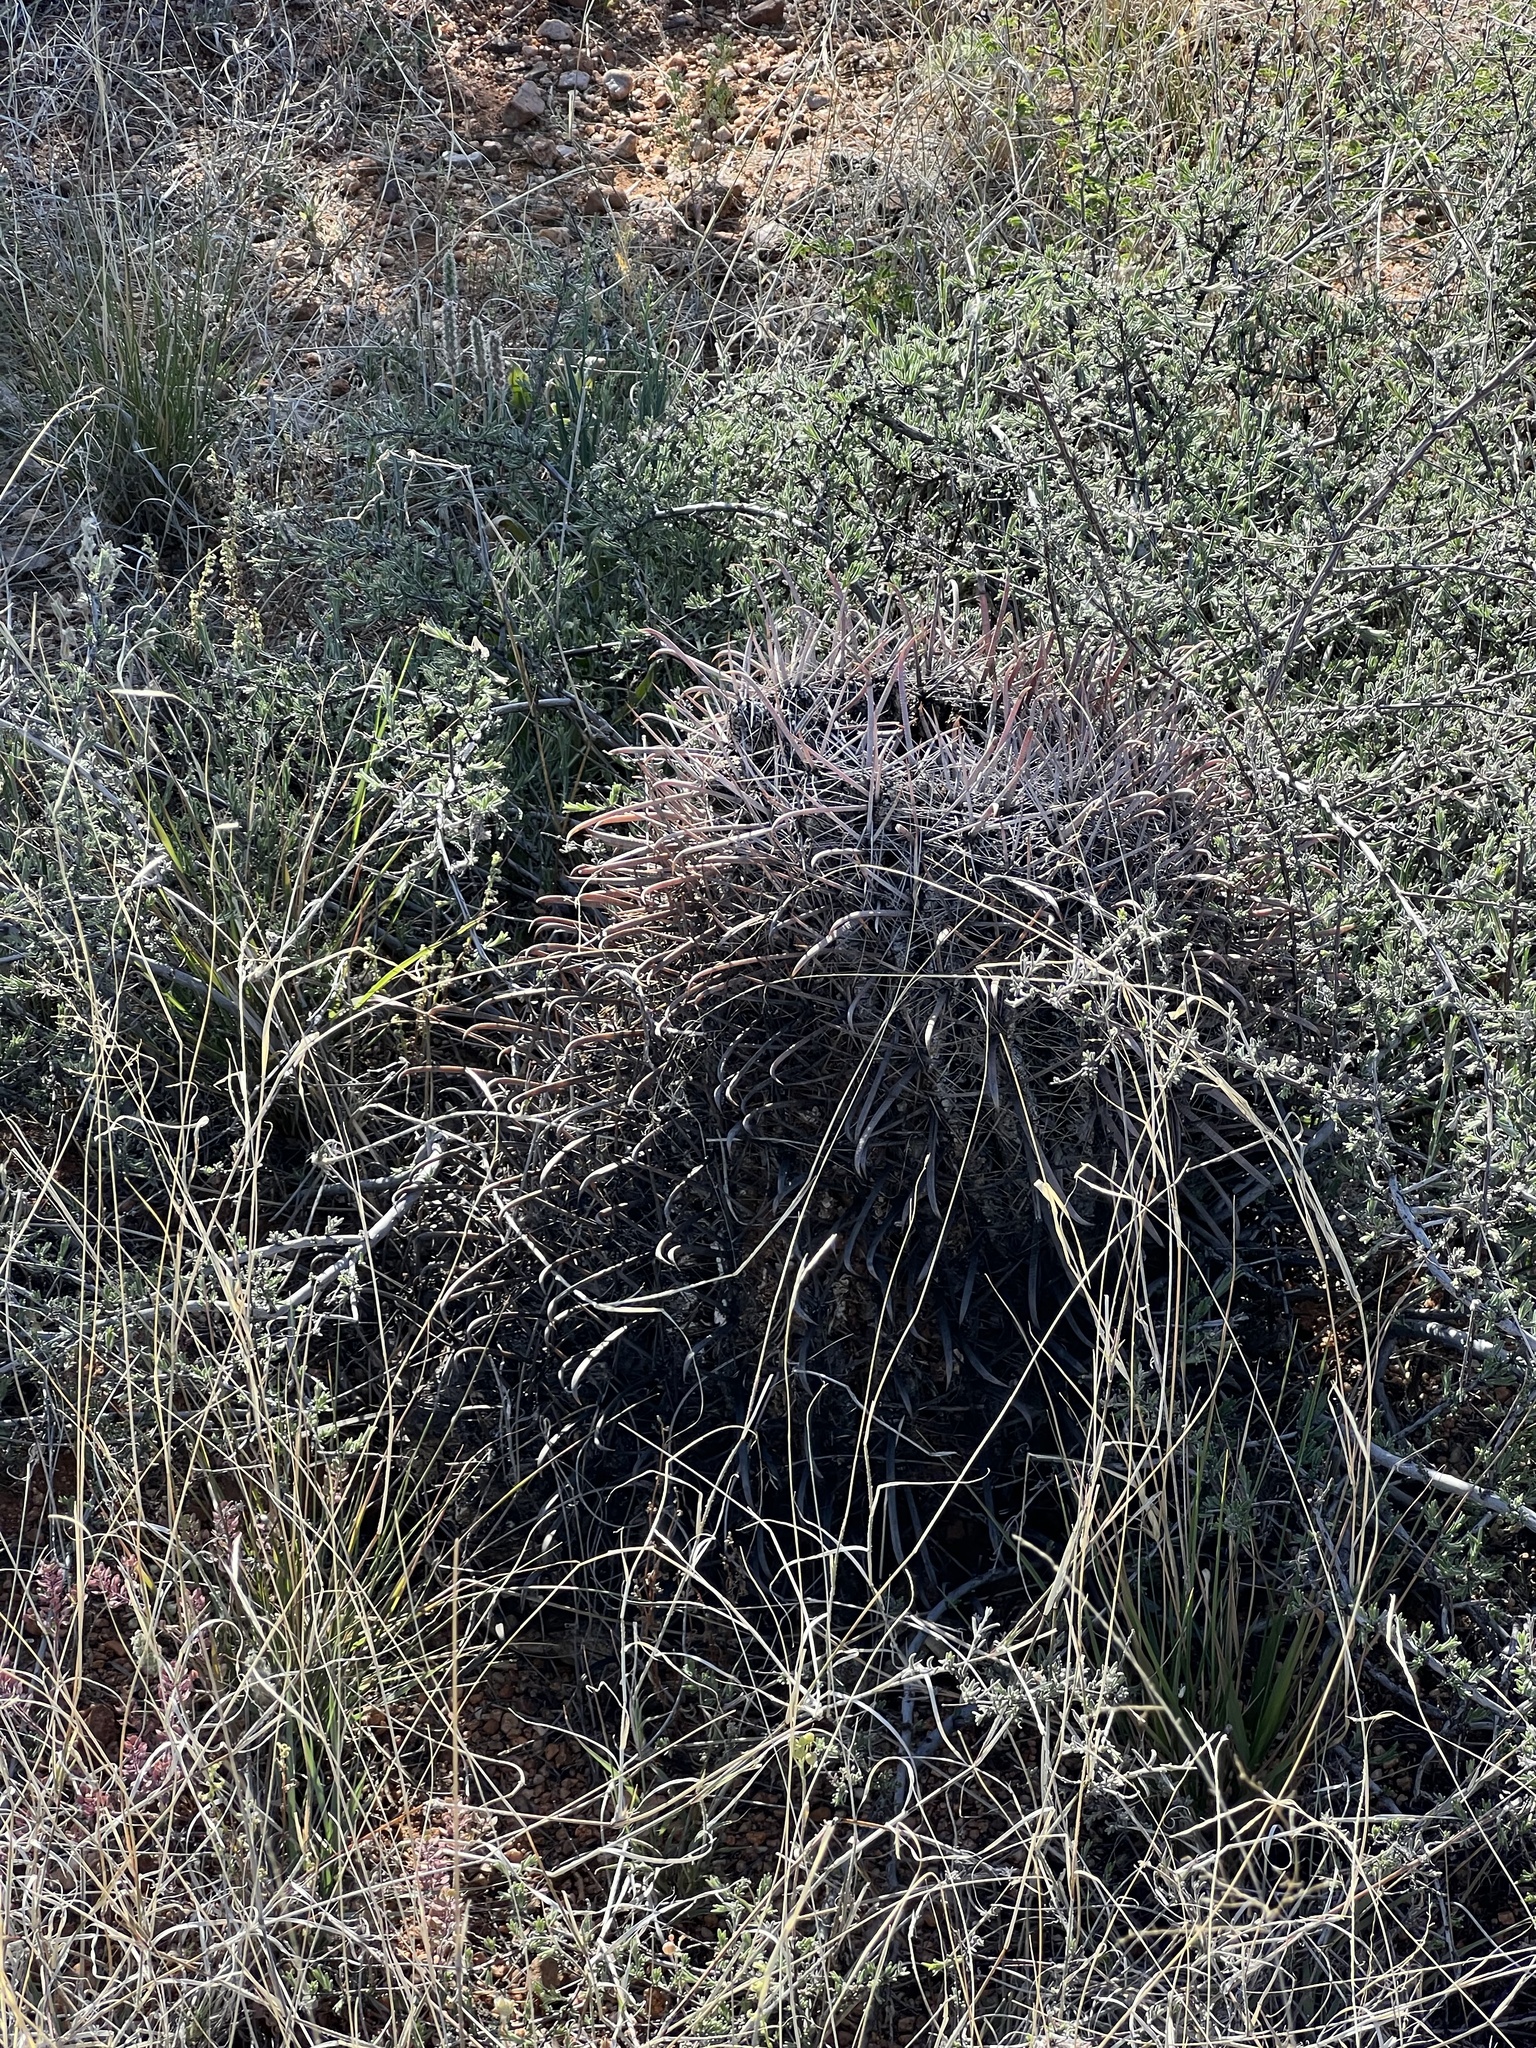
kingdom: Plantae
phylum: Tracheophyta
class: Magnoliopsida
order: Caryophyllales
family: Cactaceae
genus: Ferocactus
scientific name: Ferocactus wislizeni
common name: Candy barrel cactus
